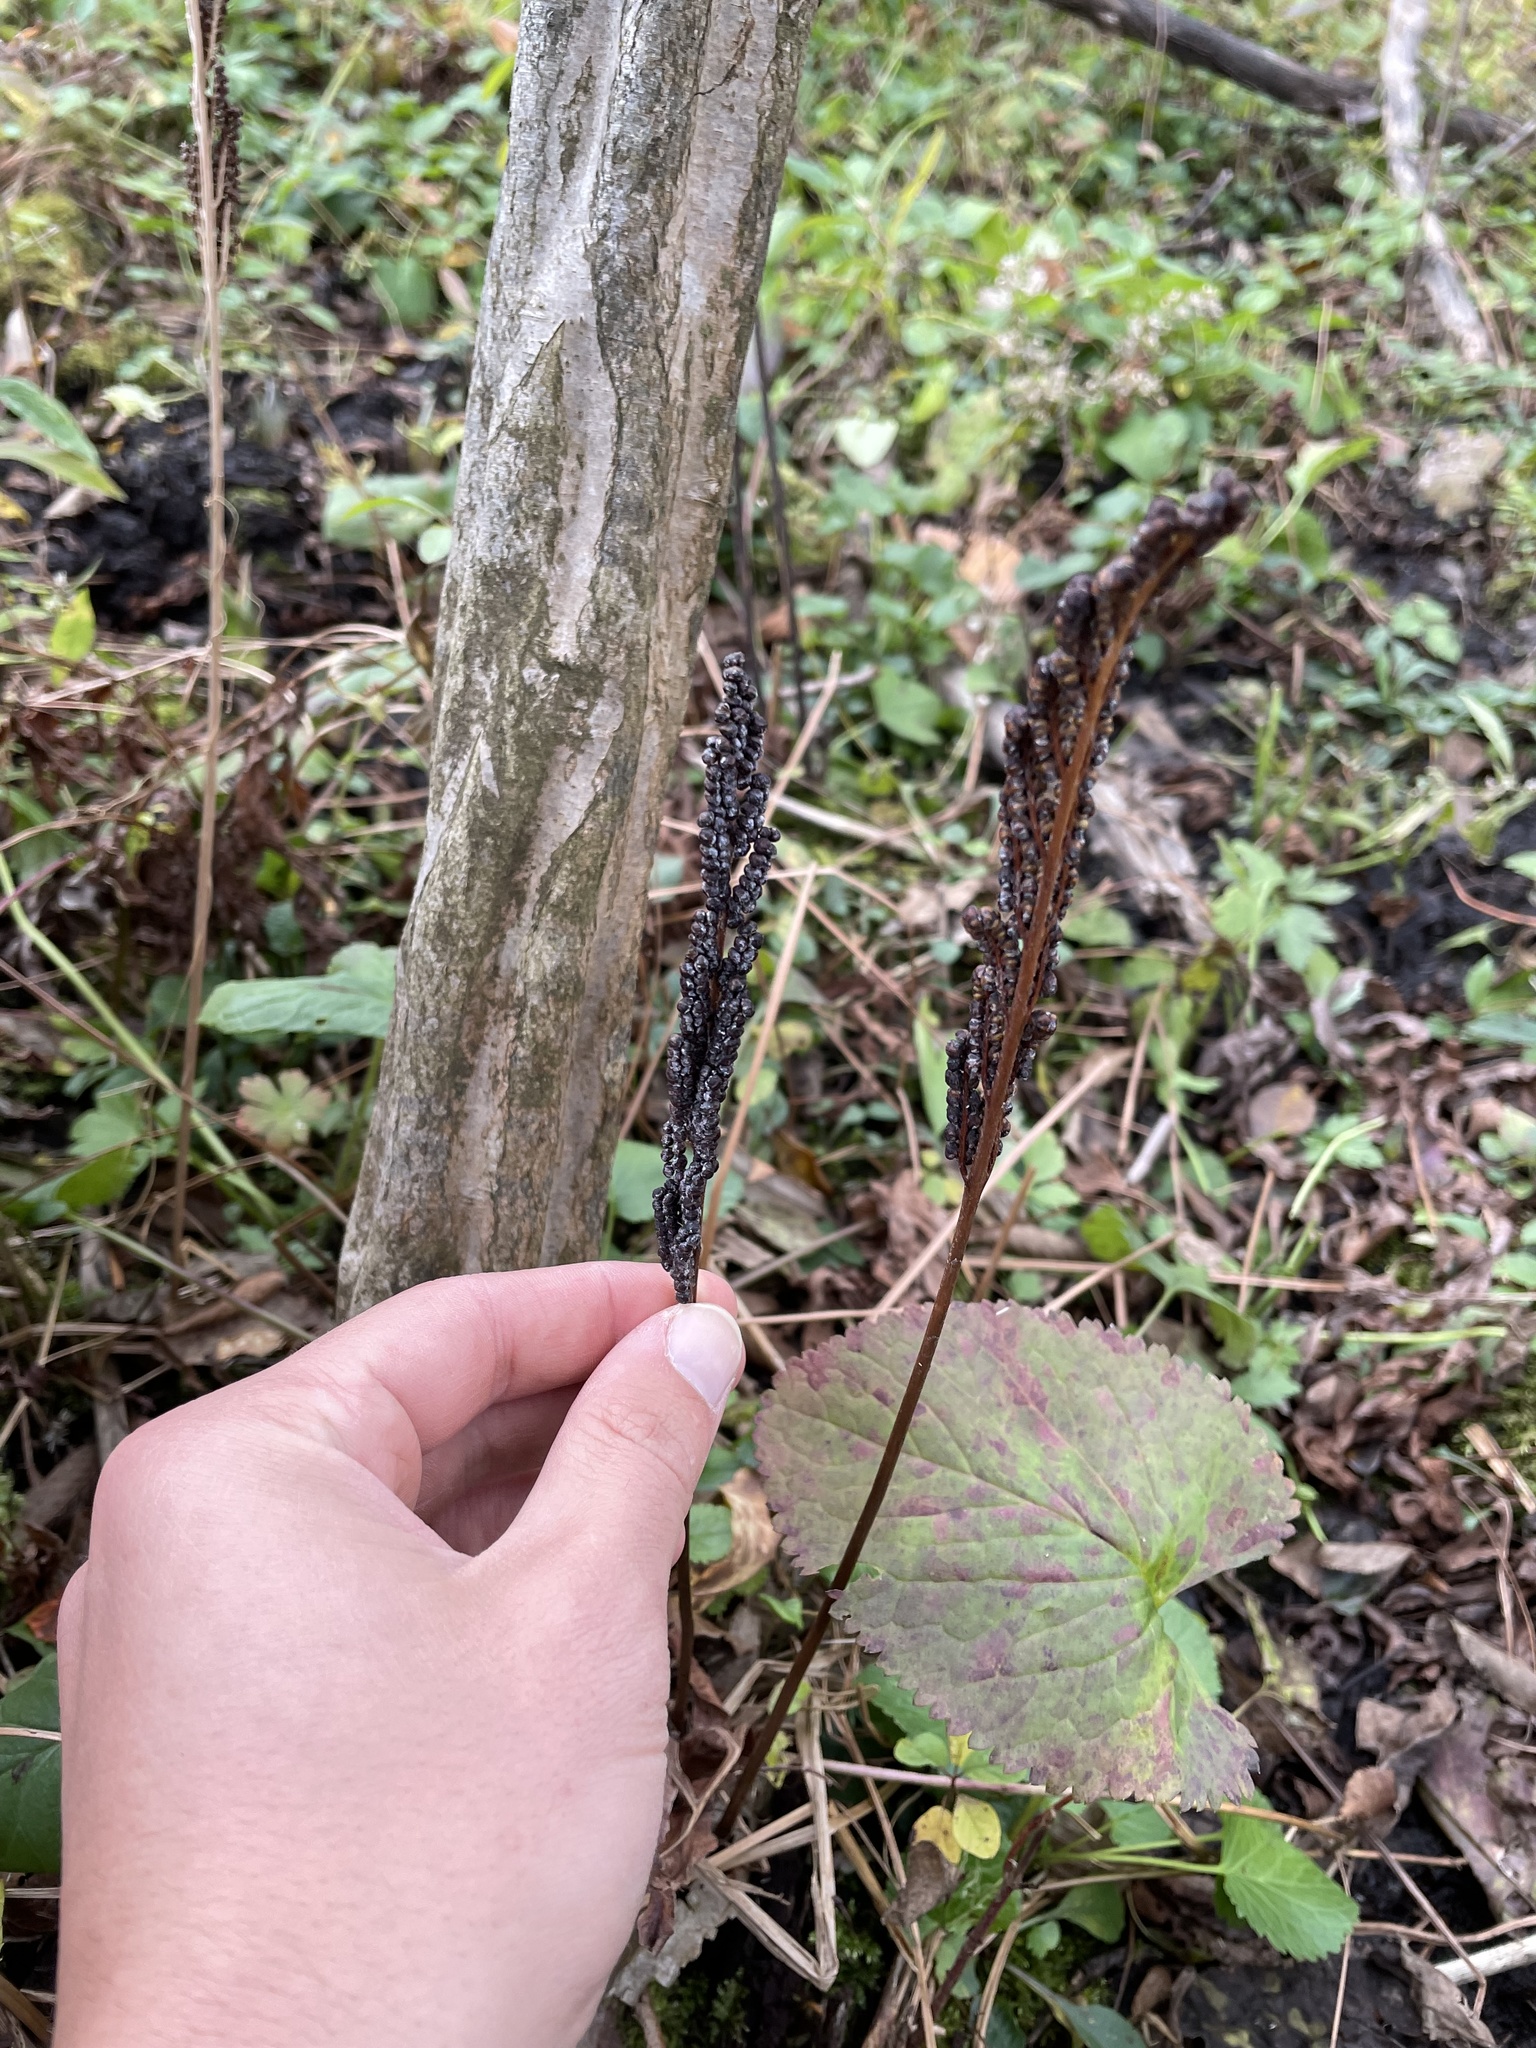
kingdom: Plantae
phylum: Tracheophyta
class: Polypodiopsida
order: Polypodiales
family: Onocleaceae
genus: Onoclea
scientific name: Onoclea sensibilis
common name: Sensitive fern
